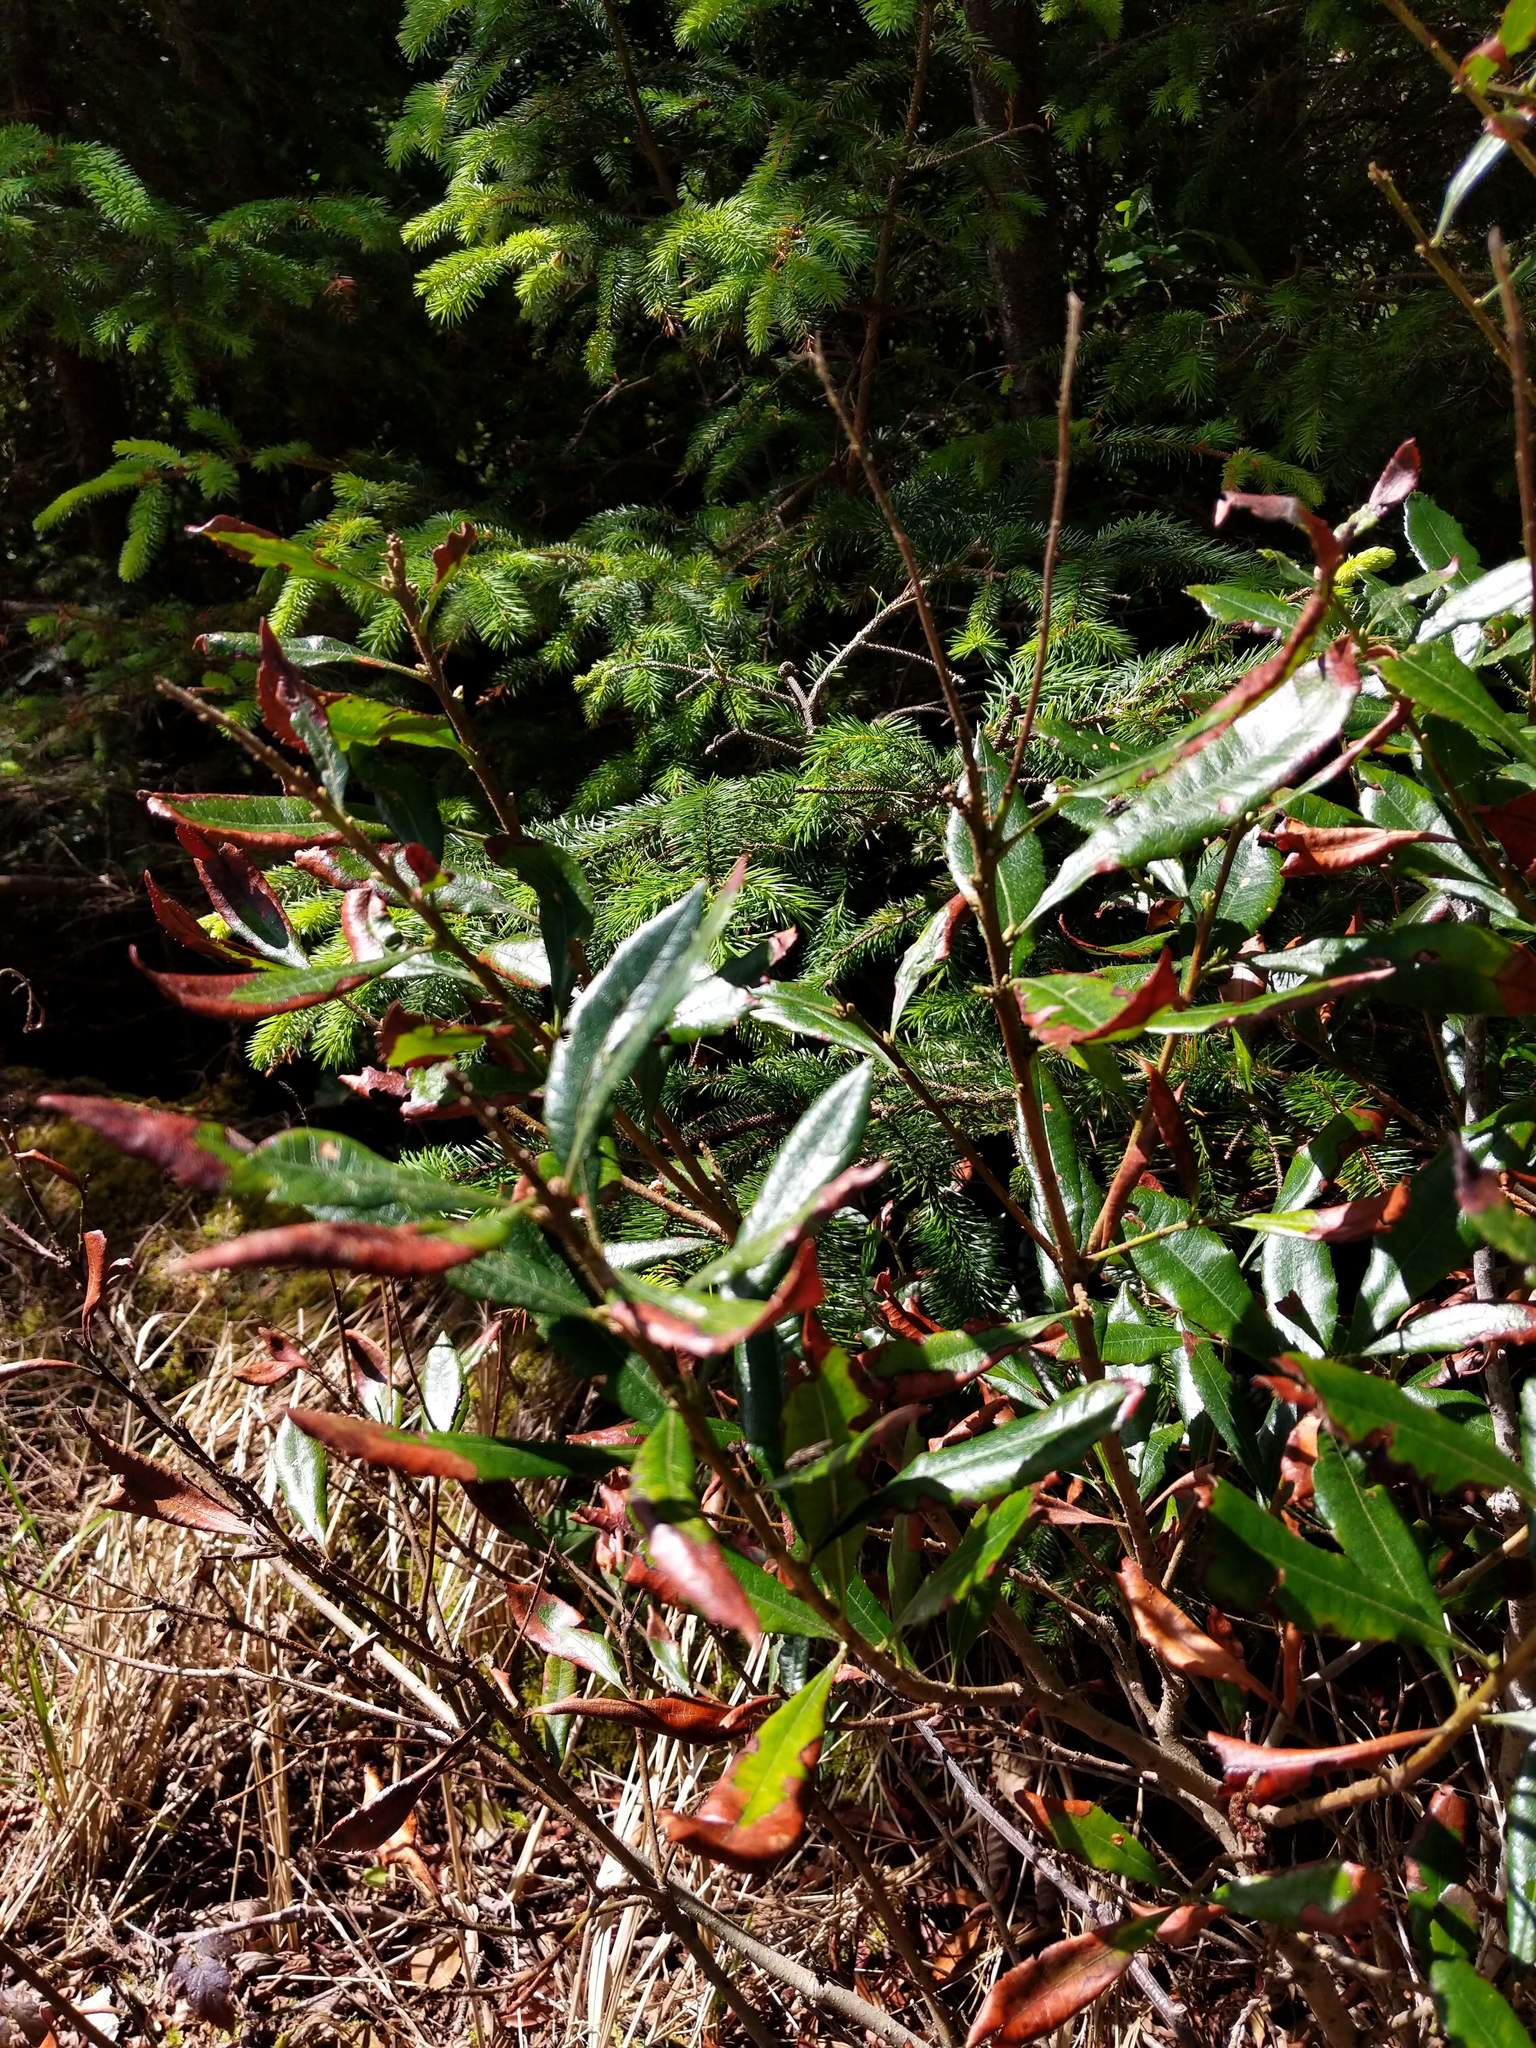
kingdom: Plantae
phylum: Tracheophyta
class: Magnoliopsida
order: Fagales
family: Myricaceae
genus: Morella
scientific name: Morella californica
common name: California wax-myrtle
